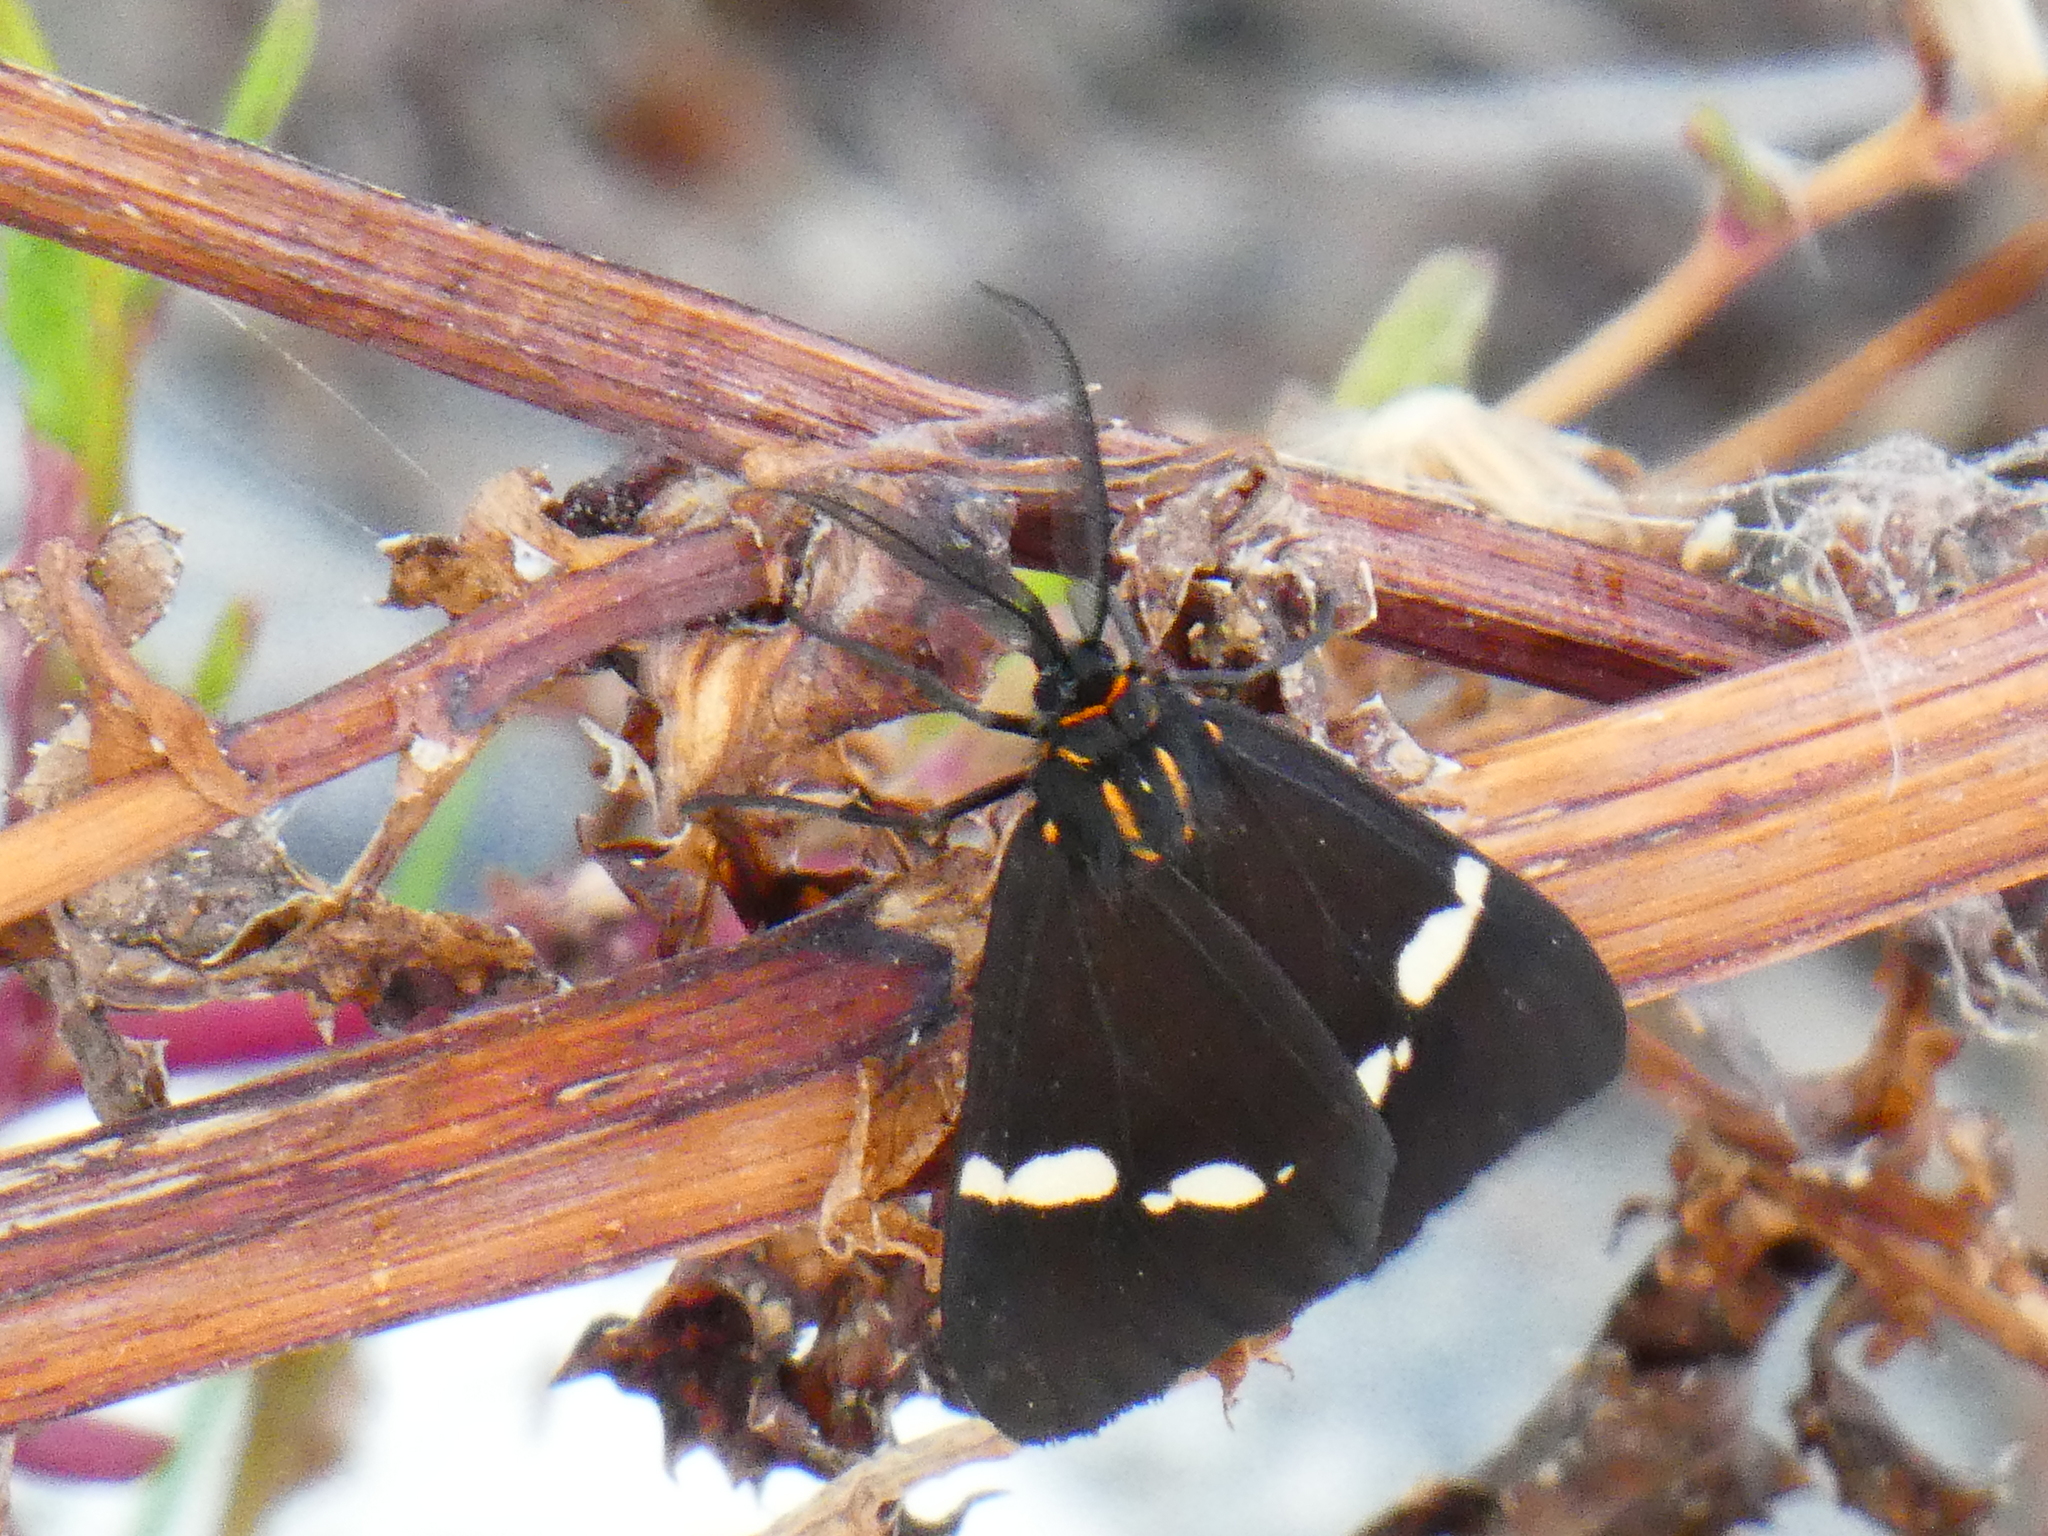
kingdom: Animalia
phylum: Arthropoda
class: Insecta
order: Lepidoptera
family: Erebidae
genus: Nyctemera
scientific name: Nyctemera annulatum
